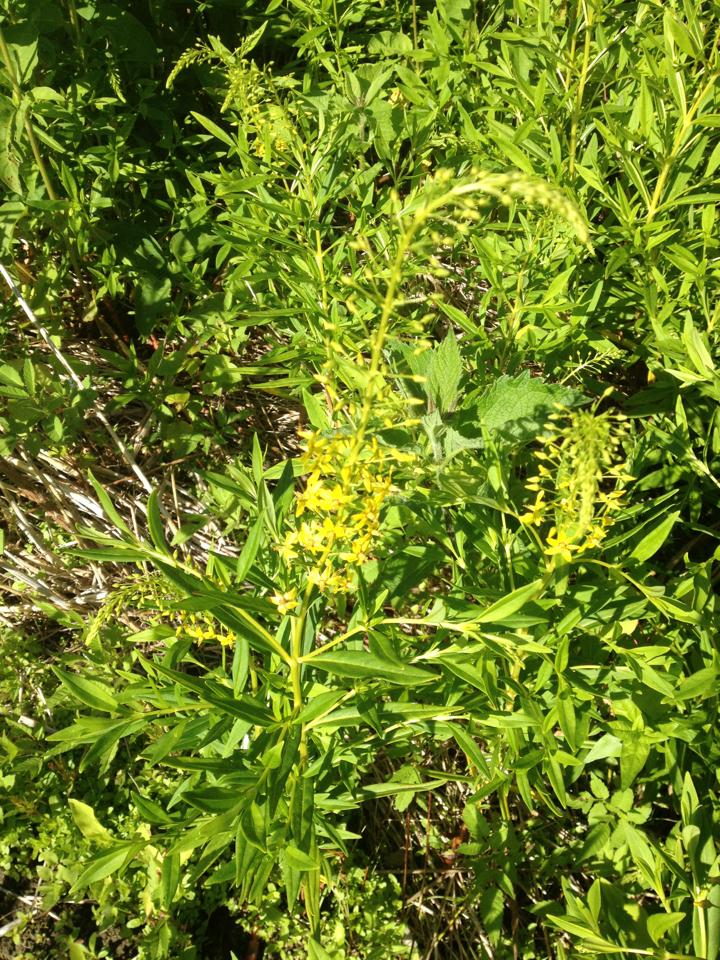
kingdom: Plantae
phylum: Tracheophyta
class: Magnoliopsida
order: Ericales
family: Primulaceae
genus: Lysimachia
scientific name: Lysimachia terrestris
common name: Lake loosestrife
